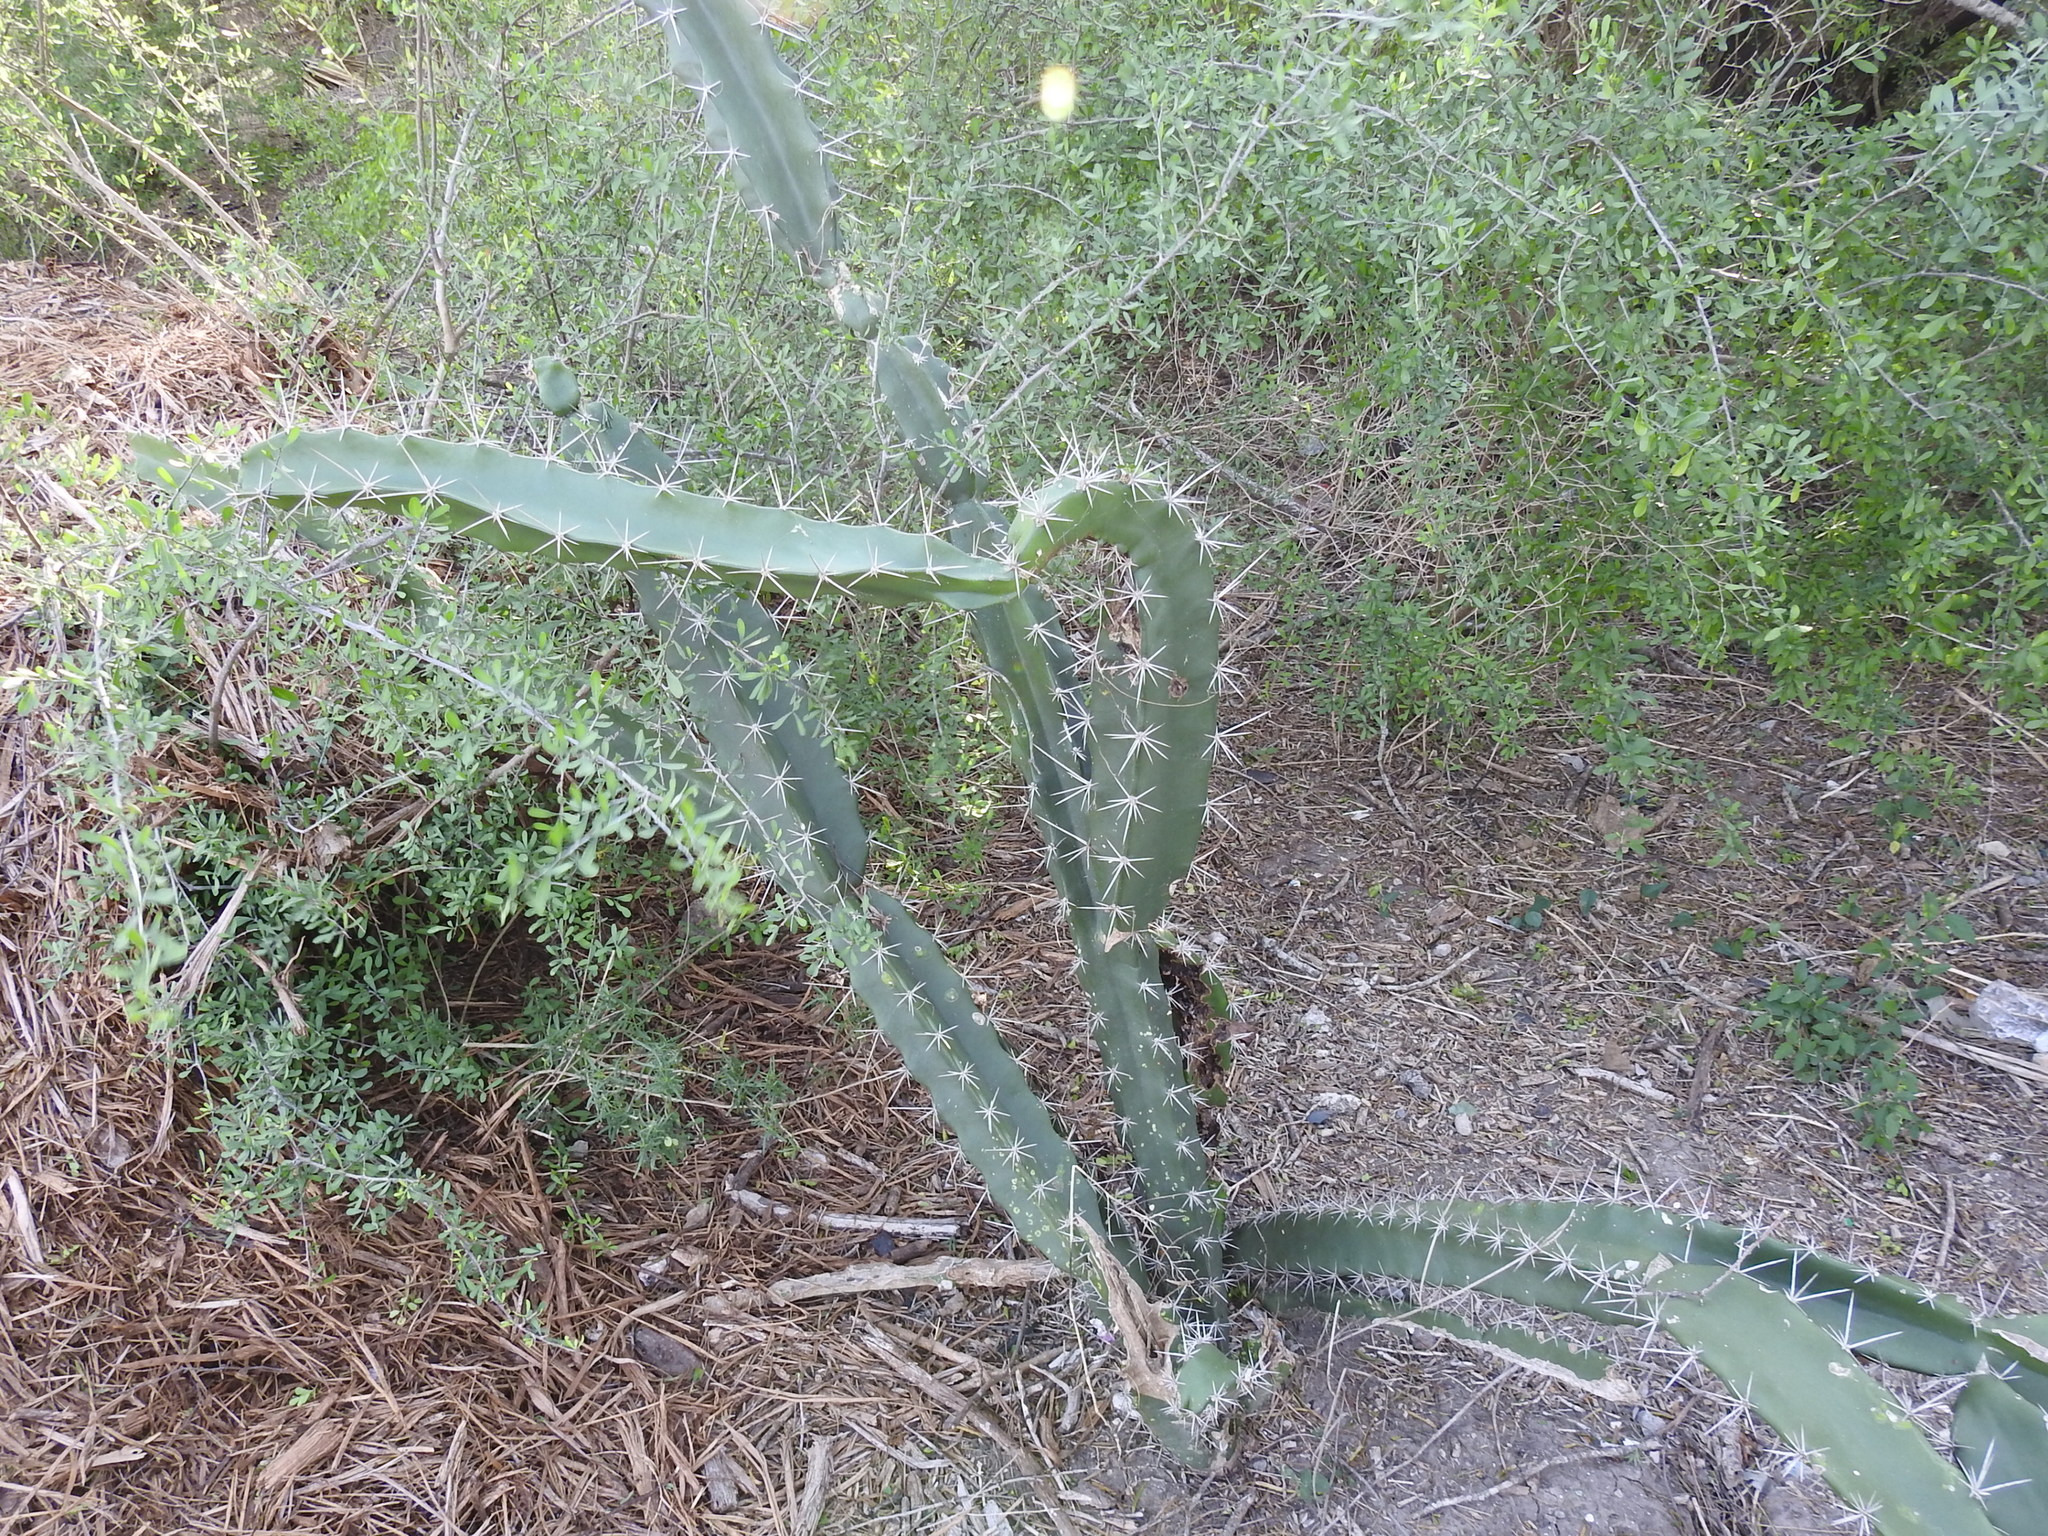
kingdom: Plantae
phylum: Tracheophyta
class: Magnoliopsida
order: Caryophyllales
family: Cactaceae
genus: Acanthocereus
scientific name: Acanthocereus tetragonus
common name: Triangle cactus
